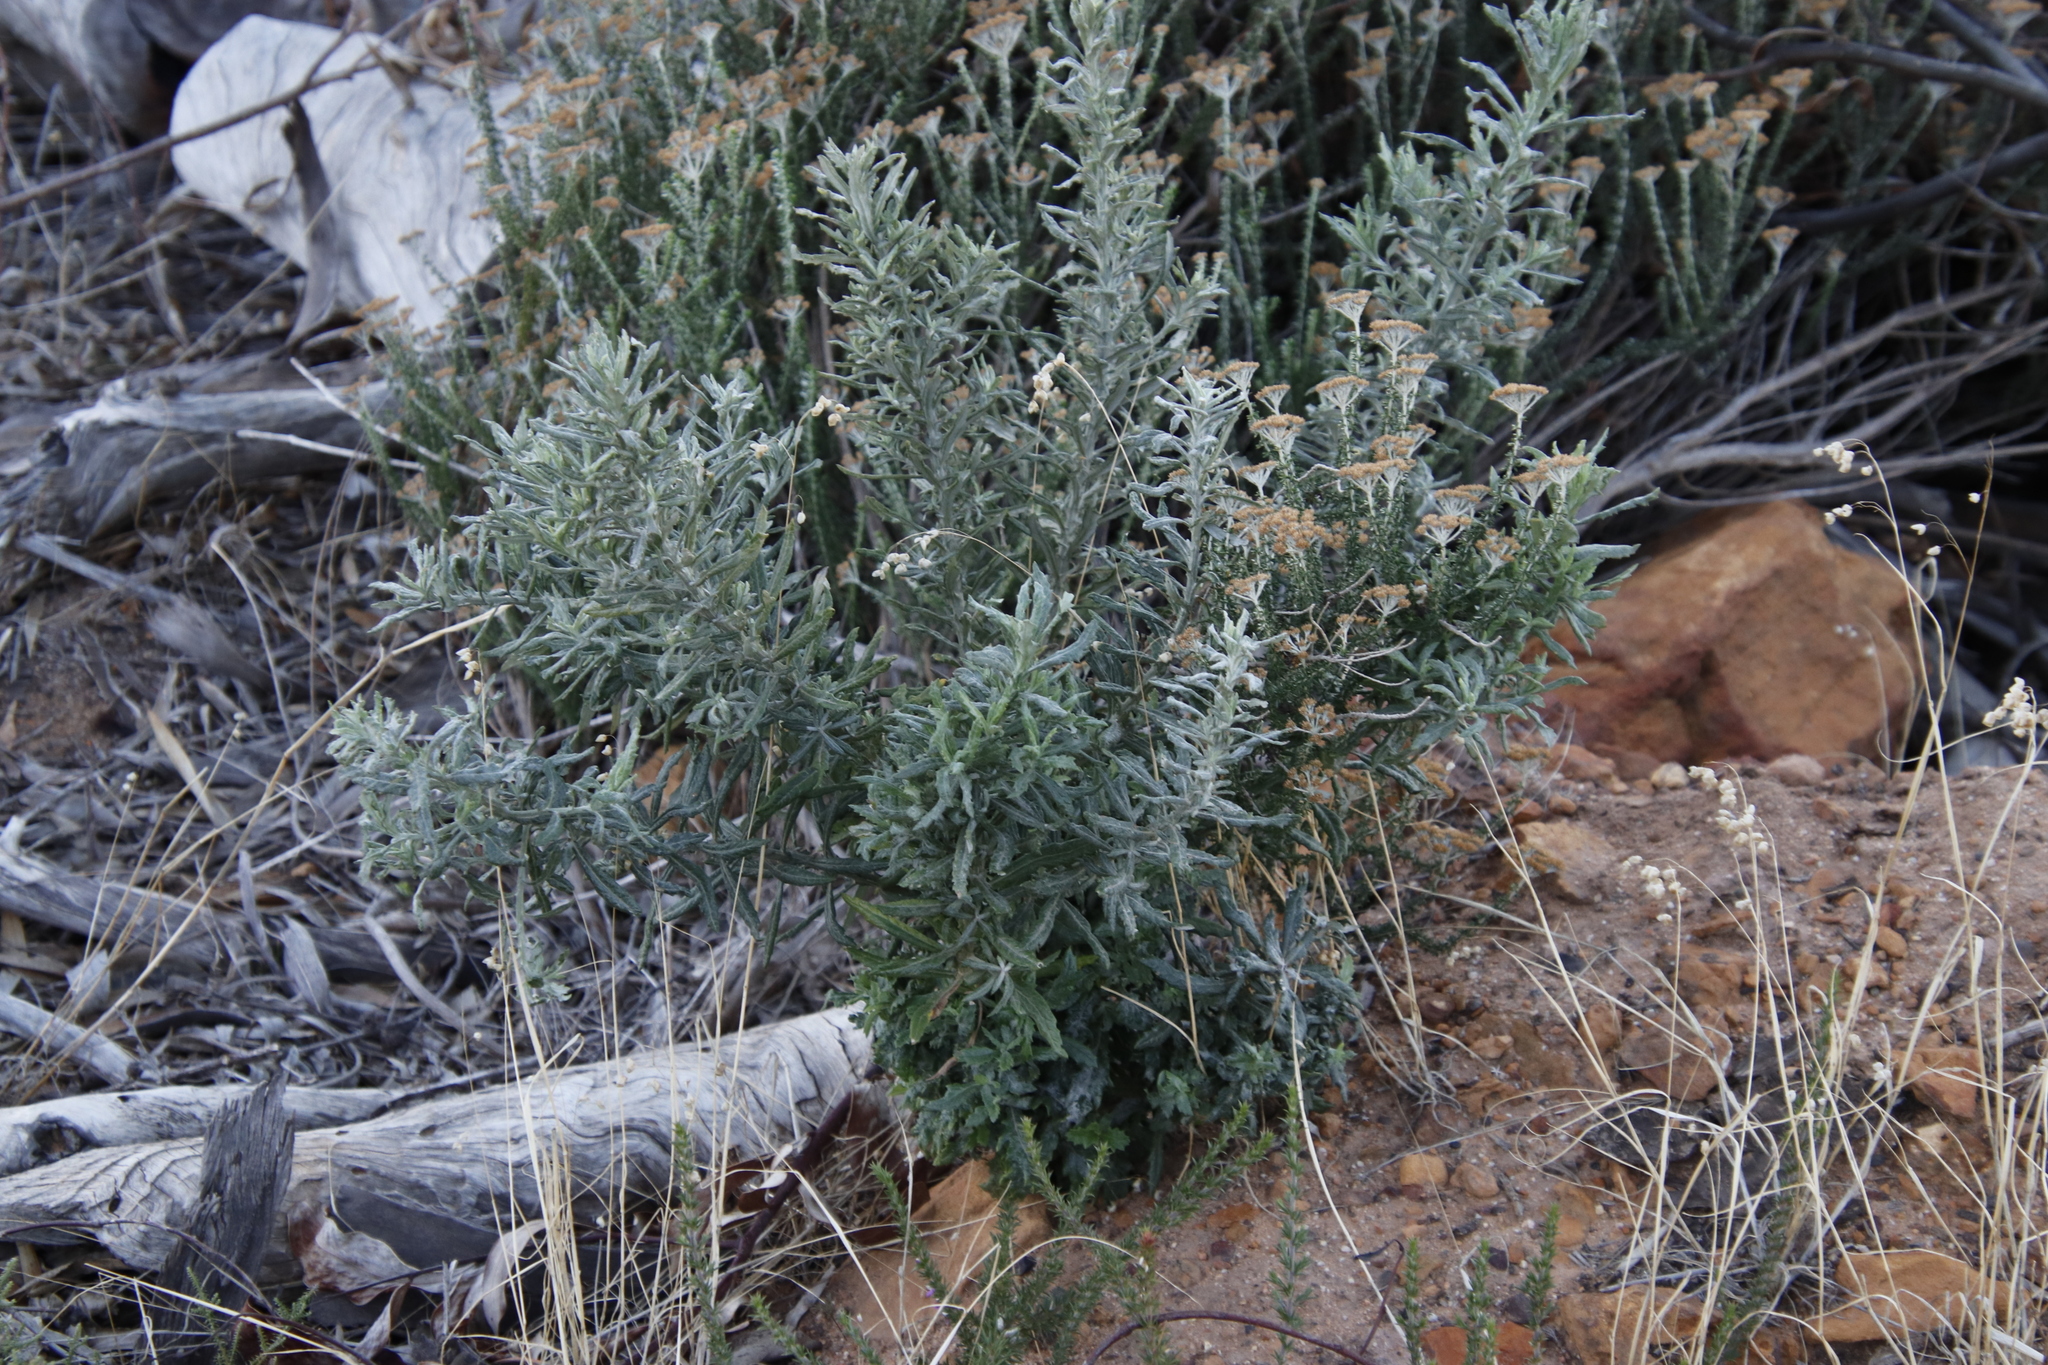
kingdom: Plantae
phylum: Tracheophyta
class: Magnoliopsida
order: Asterales
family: Asteraceae
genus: Senecio
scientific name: Senecio pterophorus
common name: Shoddy ragwort
